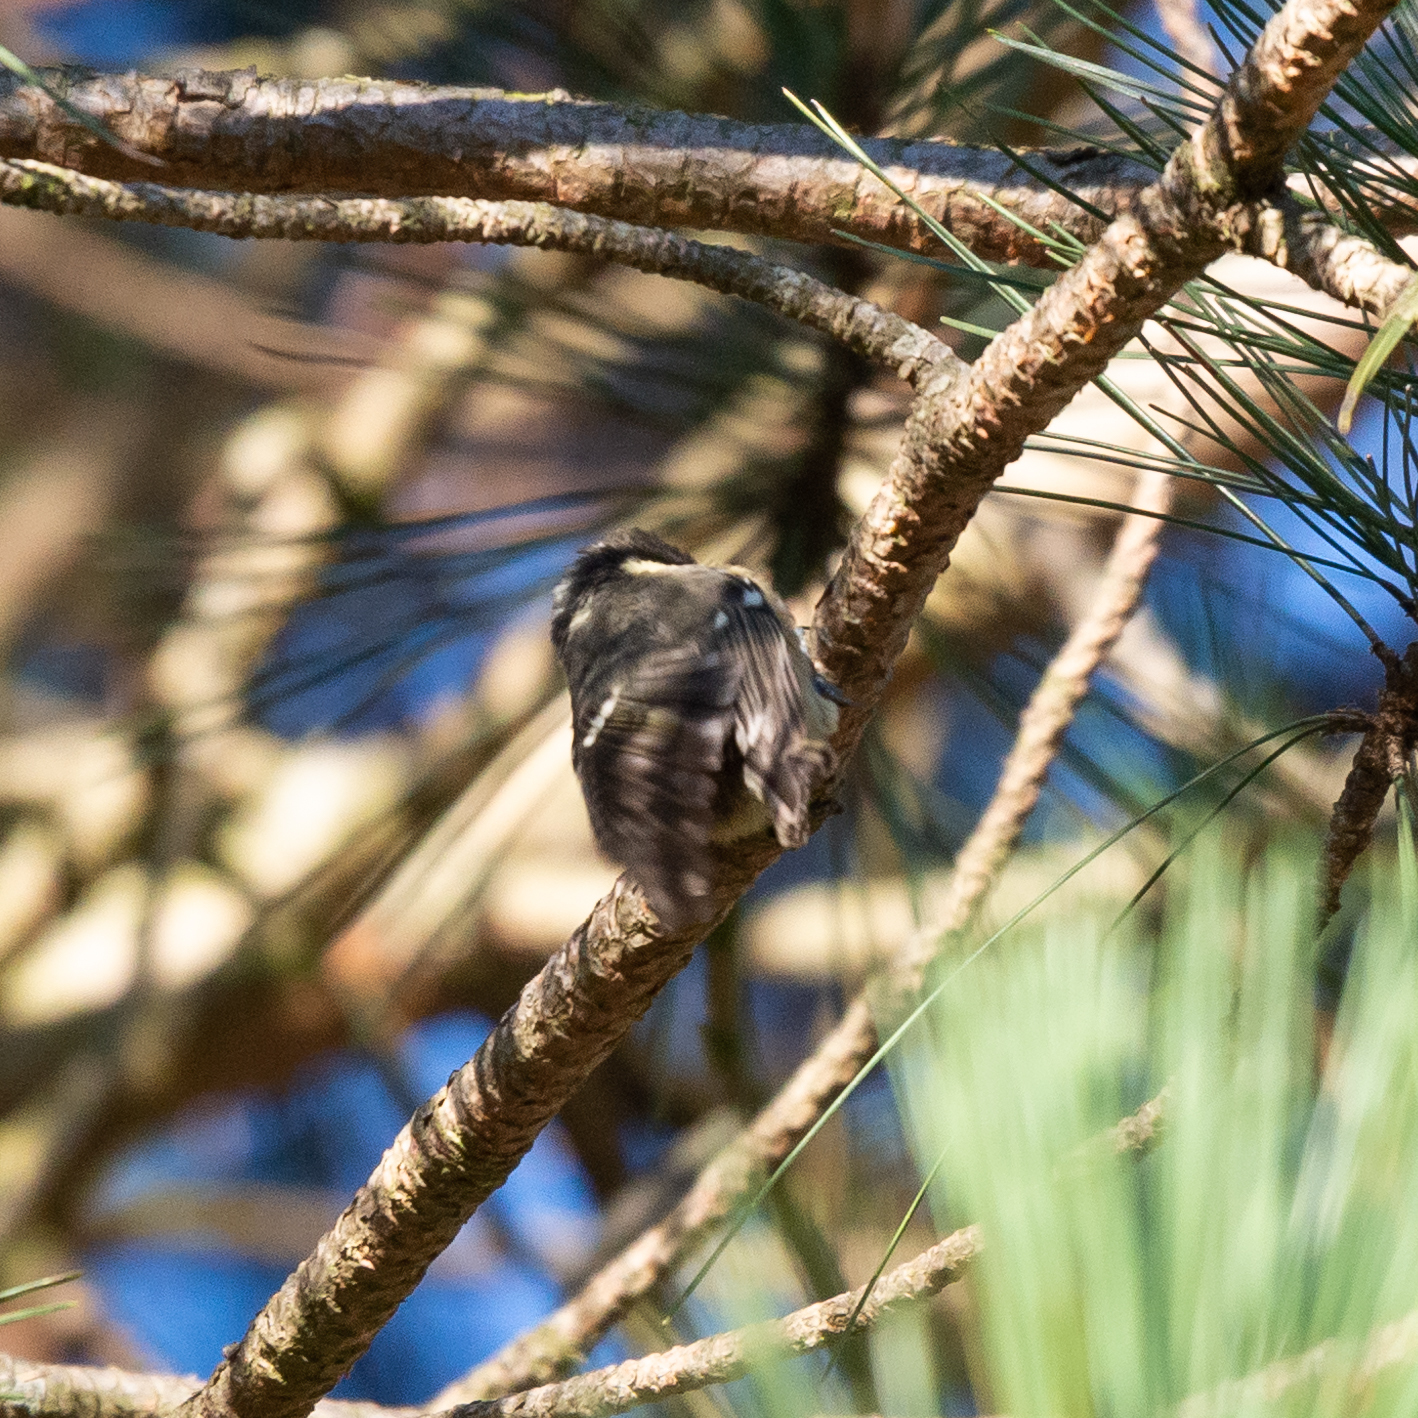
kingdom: Animalia
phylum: Chordata
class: Aves
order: Passeriformes
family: Paridae
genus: Periparus
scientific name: Periparus ater
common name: Coal tit
